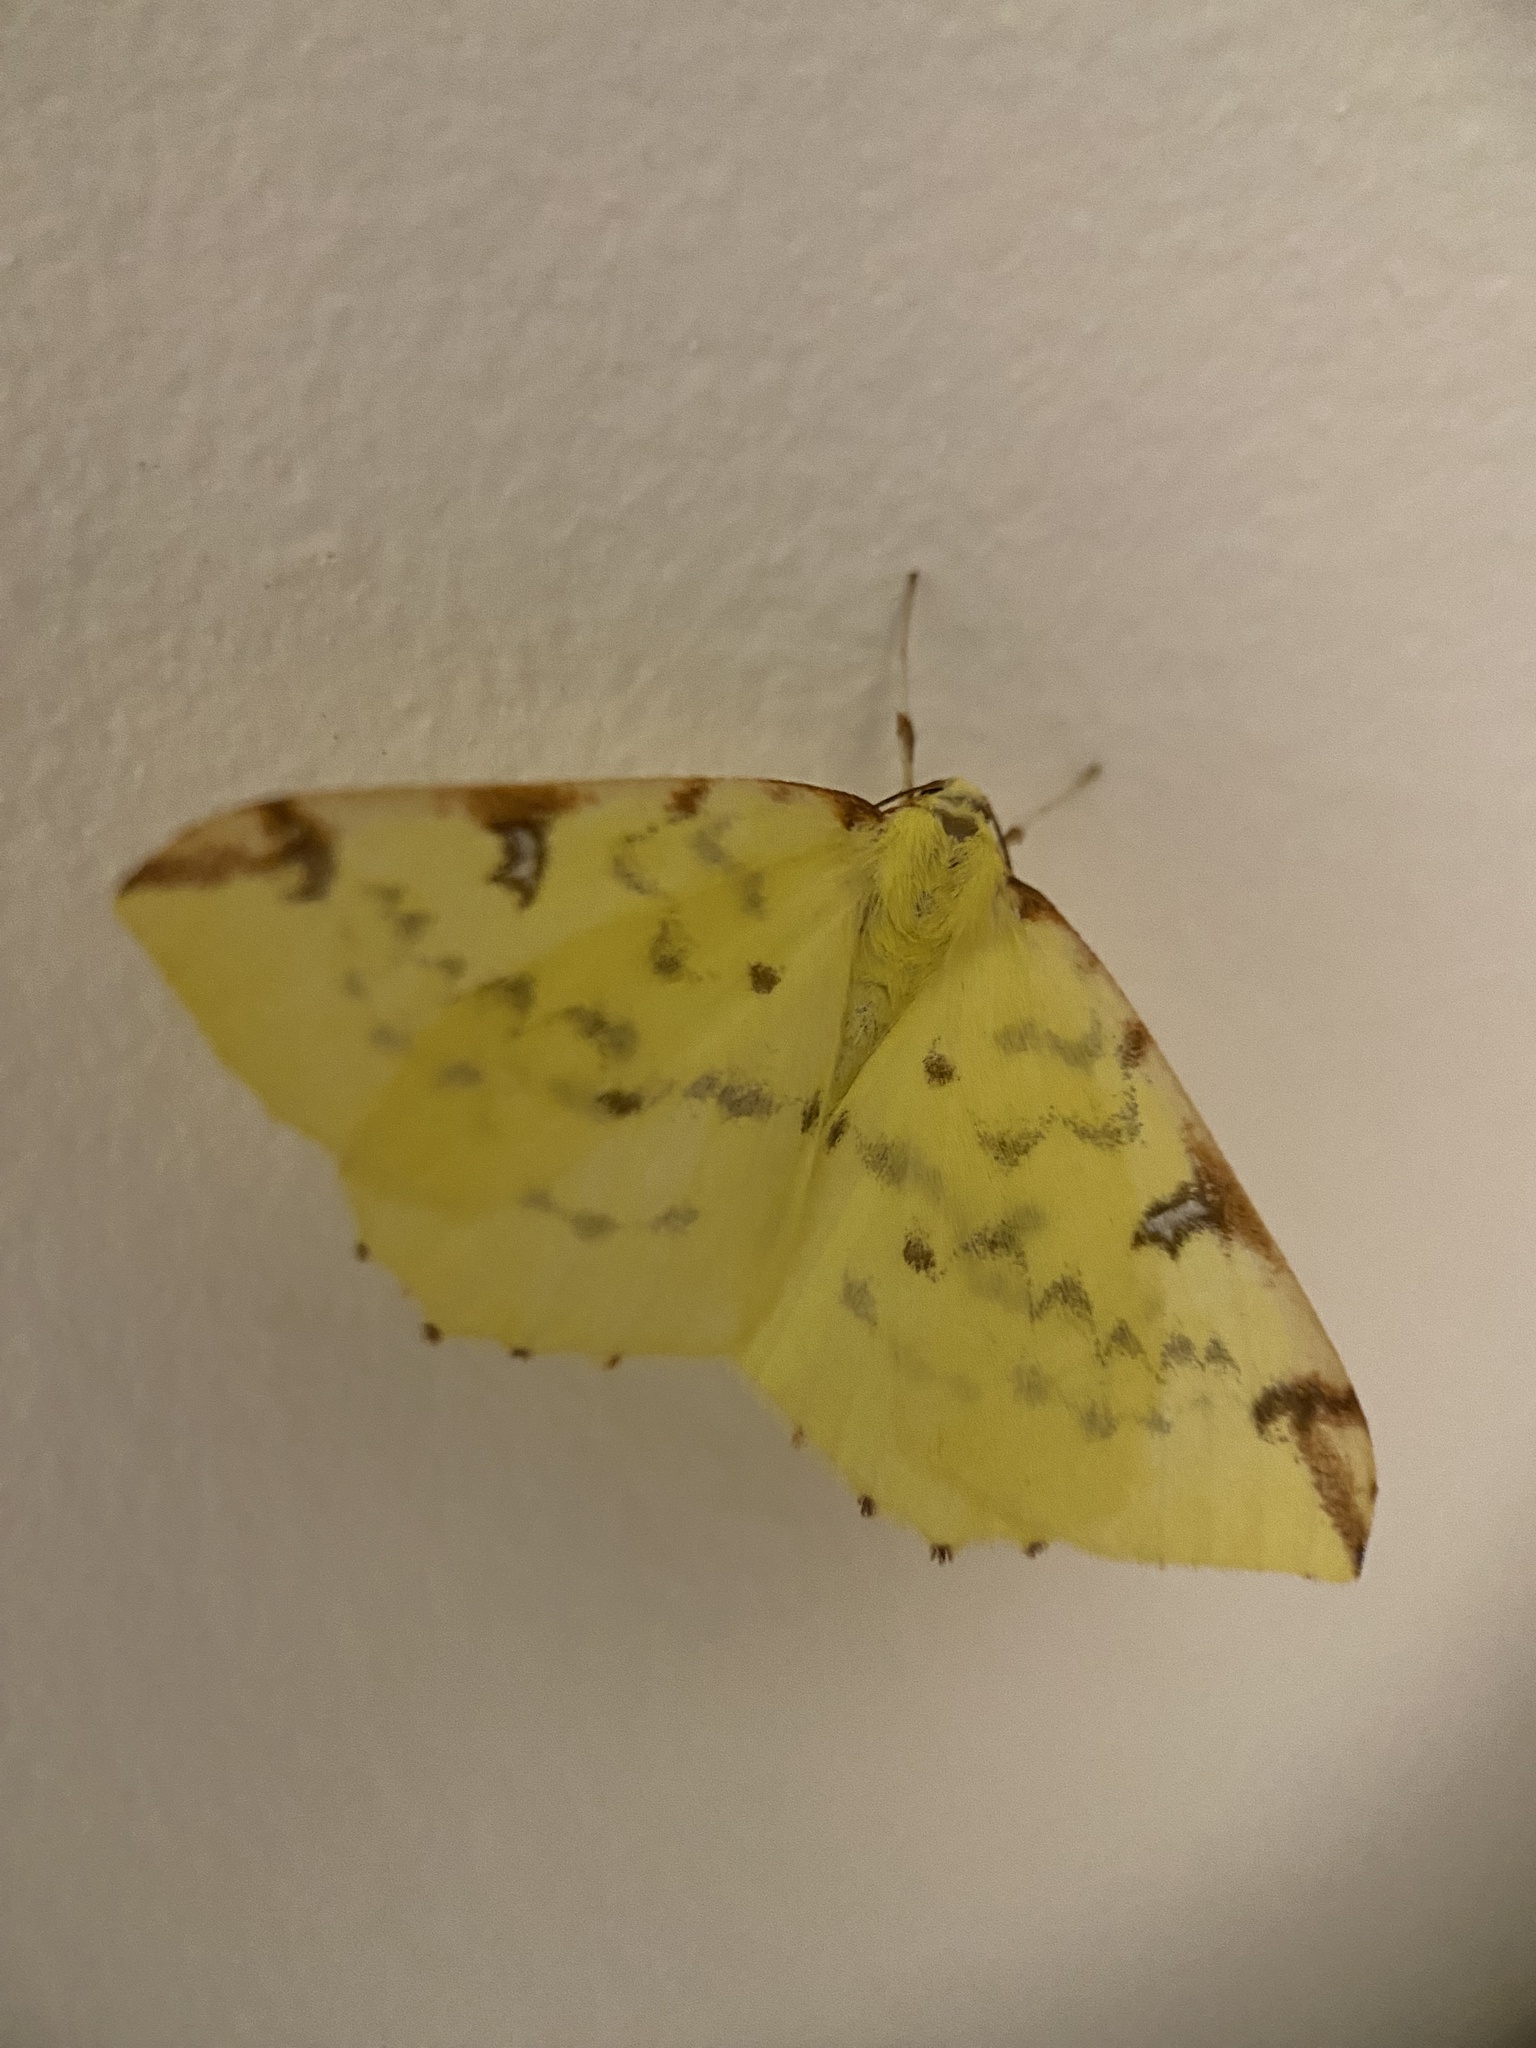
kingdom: Animalia
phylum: Arthropoda
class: Insecta
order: Lepidoptera
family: Geometridae
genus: Opisthograptis
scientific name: Opisthograptis luteolata
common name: Brimstone moth
